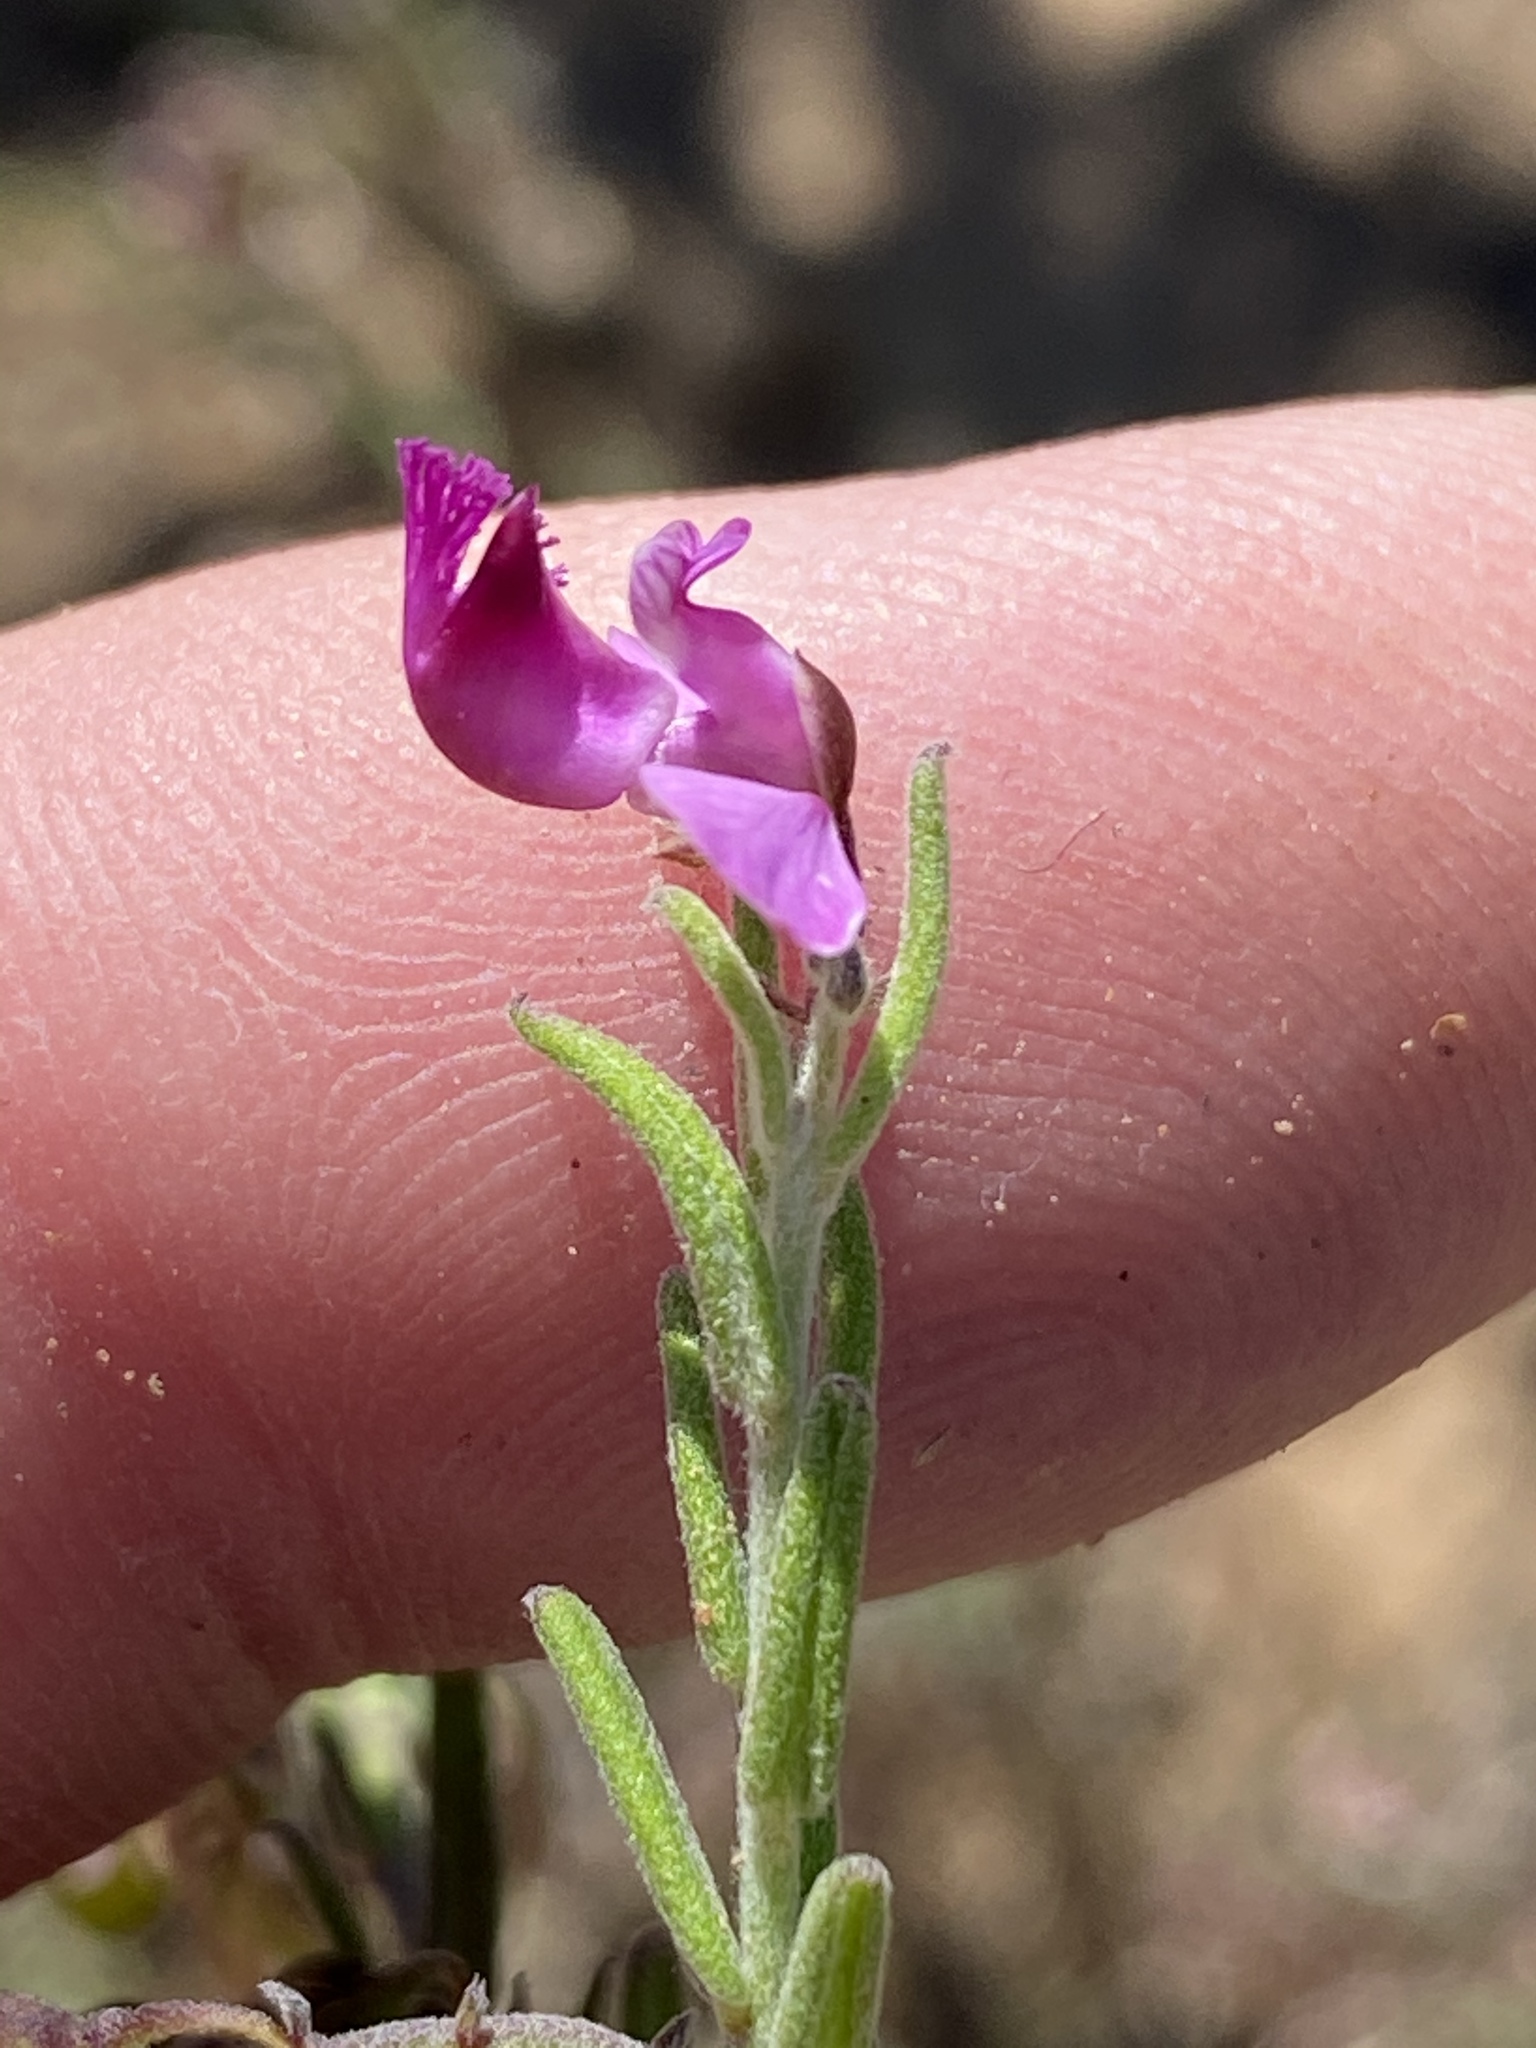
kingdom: Plantae
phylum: Tracheophyta
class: Magnoliopsida
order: Fabales
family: Polygalaceae
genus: Polygala
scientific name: Polygala scabra
